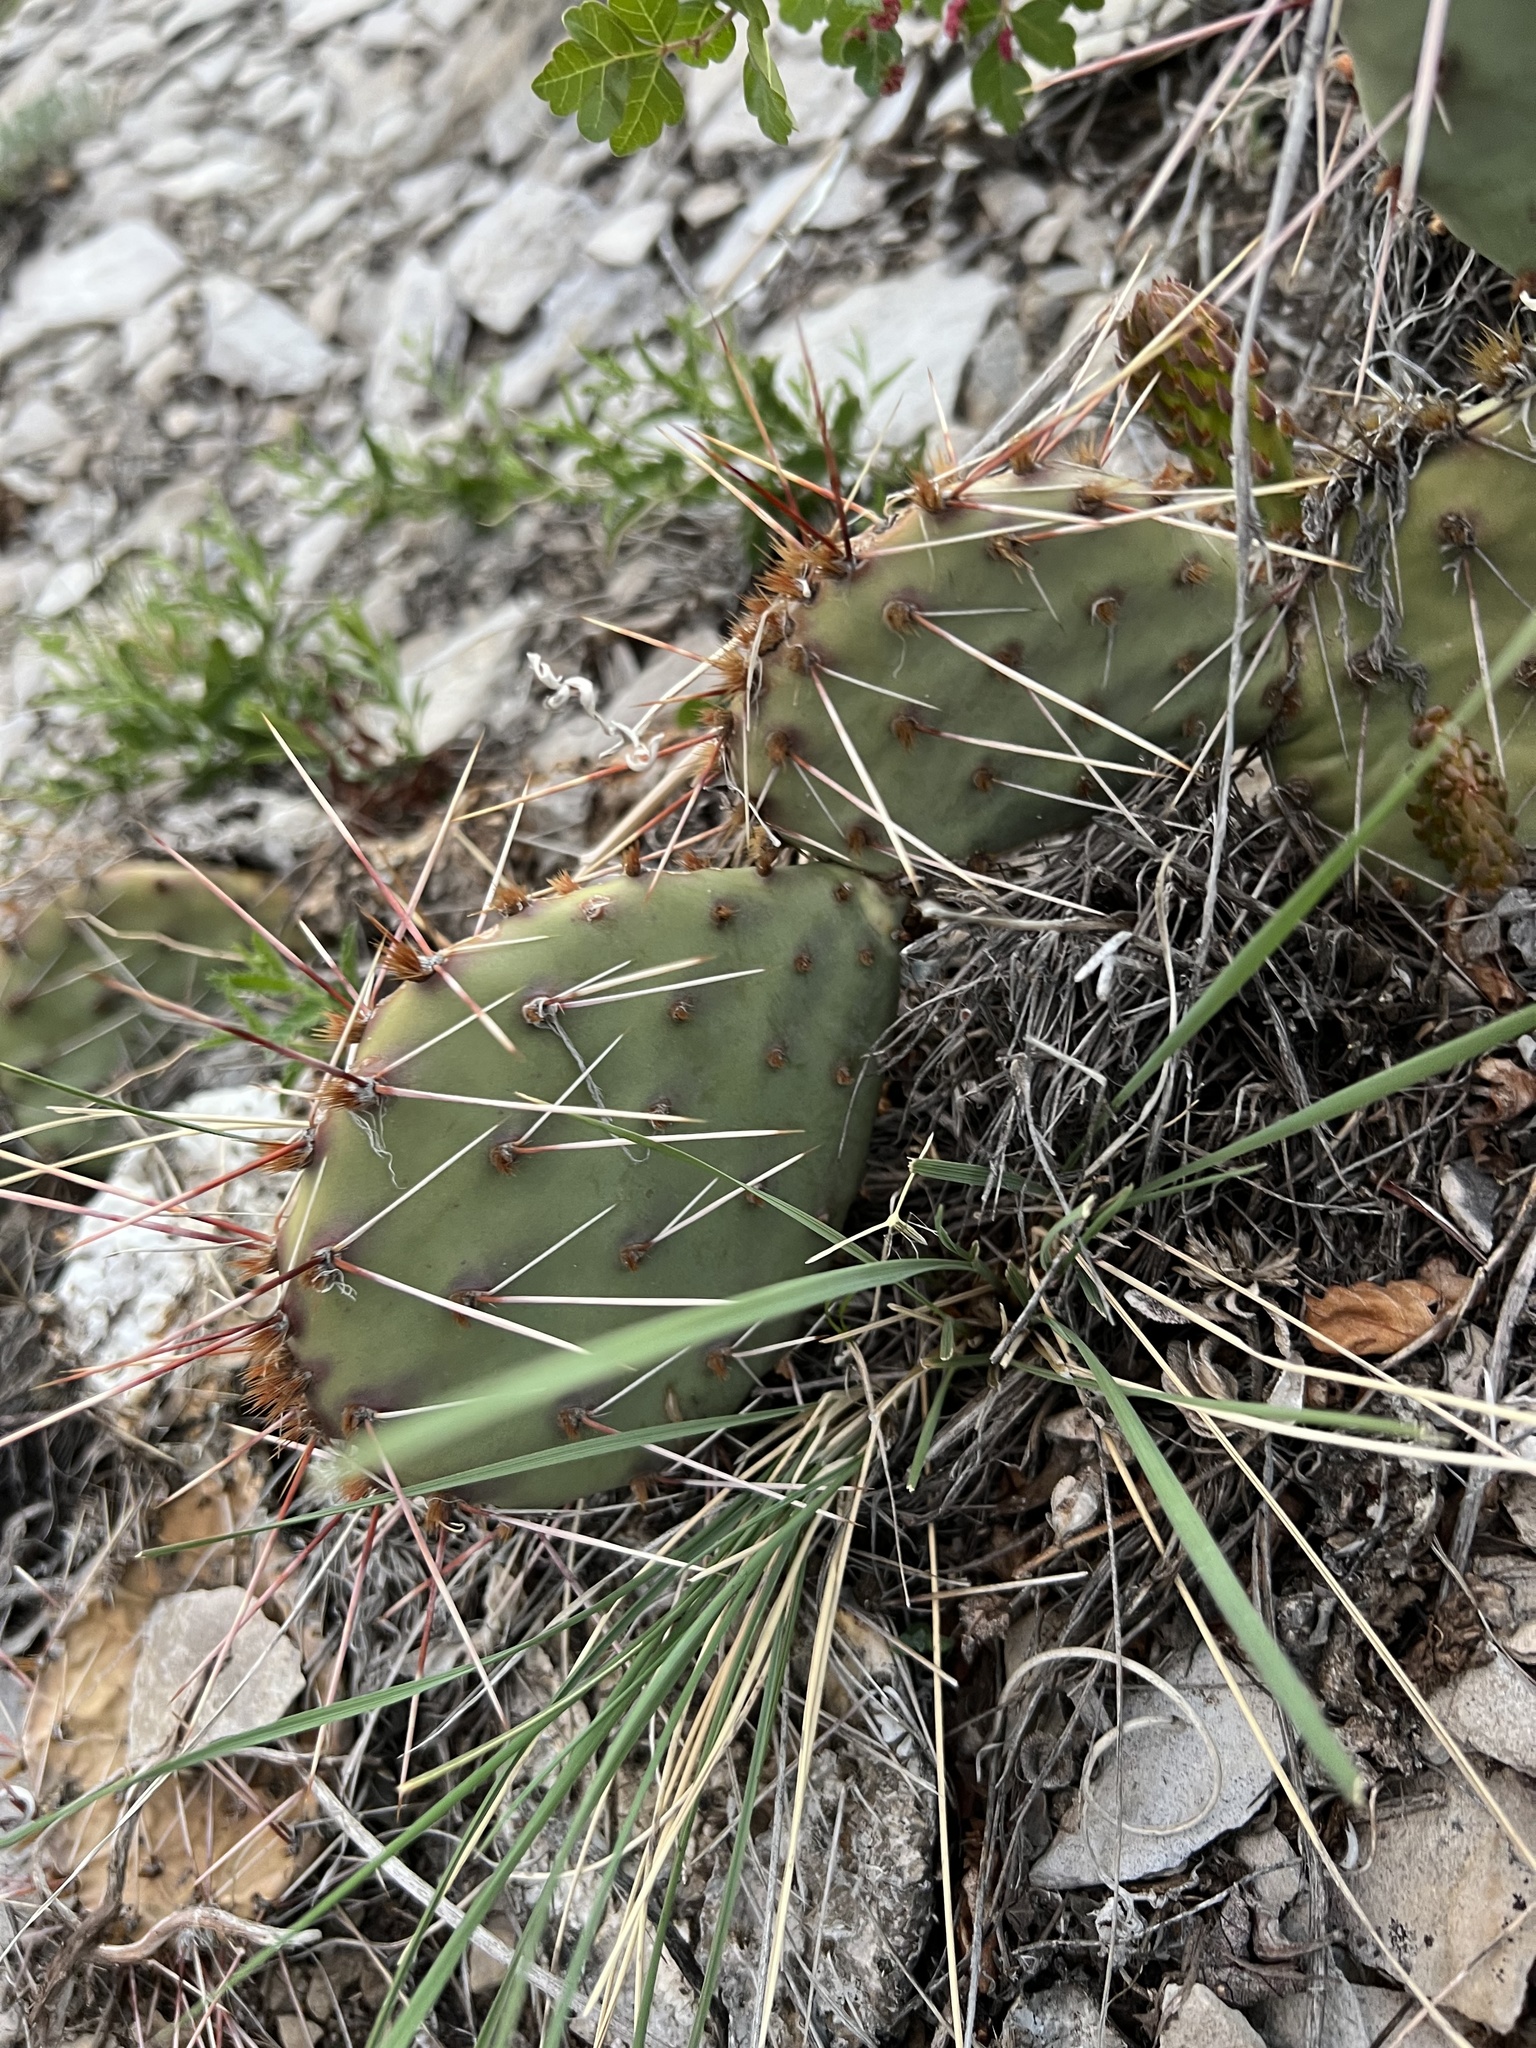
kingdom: Plantae
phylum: Tracheophyta
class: Magnoliopsida
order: Caryophyllales
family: Cactaceae
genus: Opuntia
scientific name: Opuntia cymochila
